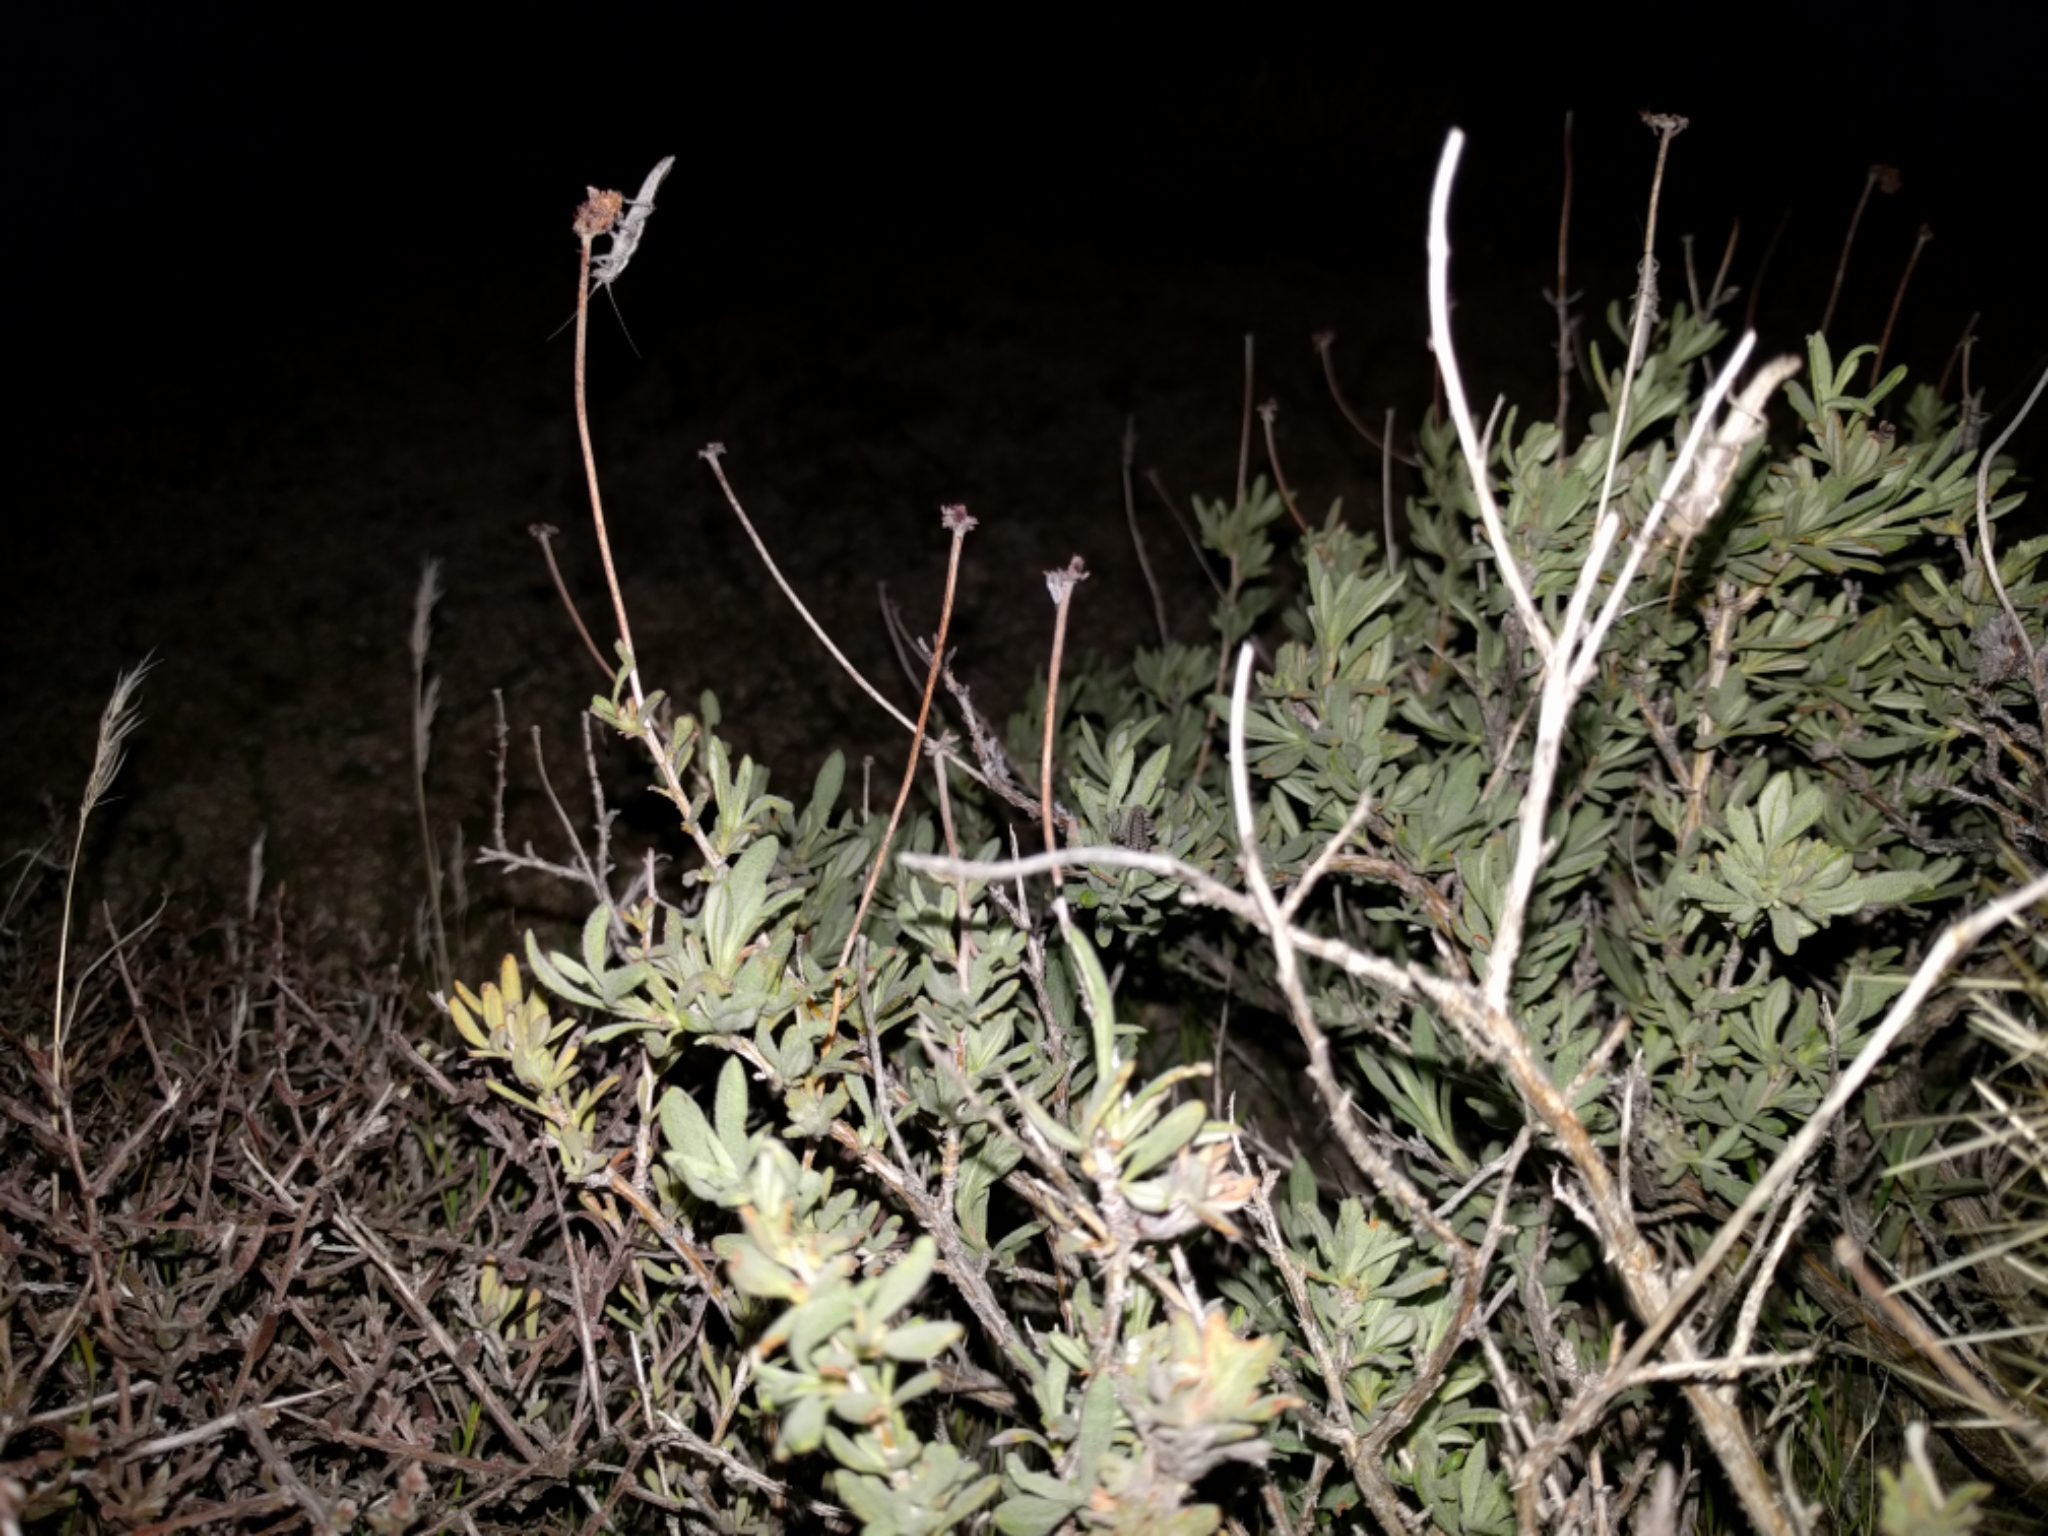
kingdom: Plantae
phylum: Tracheophyta
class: Magnoliopsida
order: Caryophyllales
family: Polygonaceae
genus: Eriogonum
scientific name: Eriogonum fasciculatum
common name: California wild buckwheat
